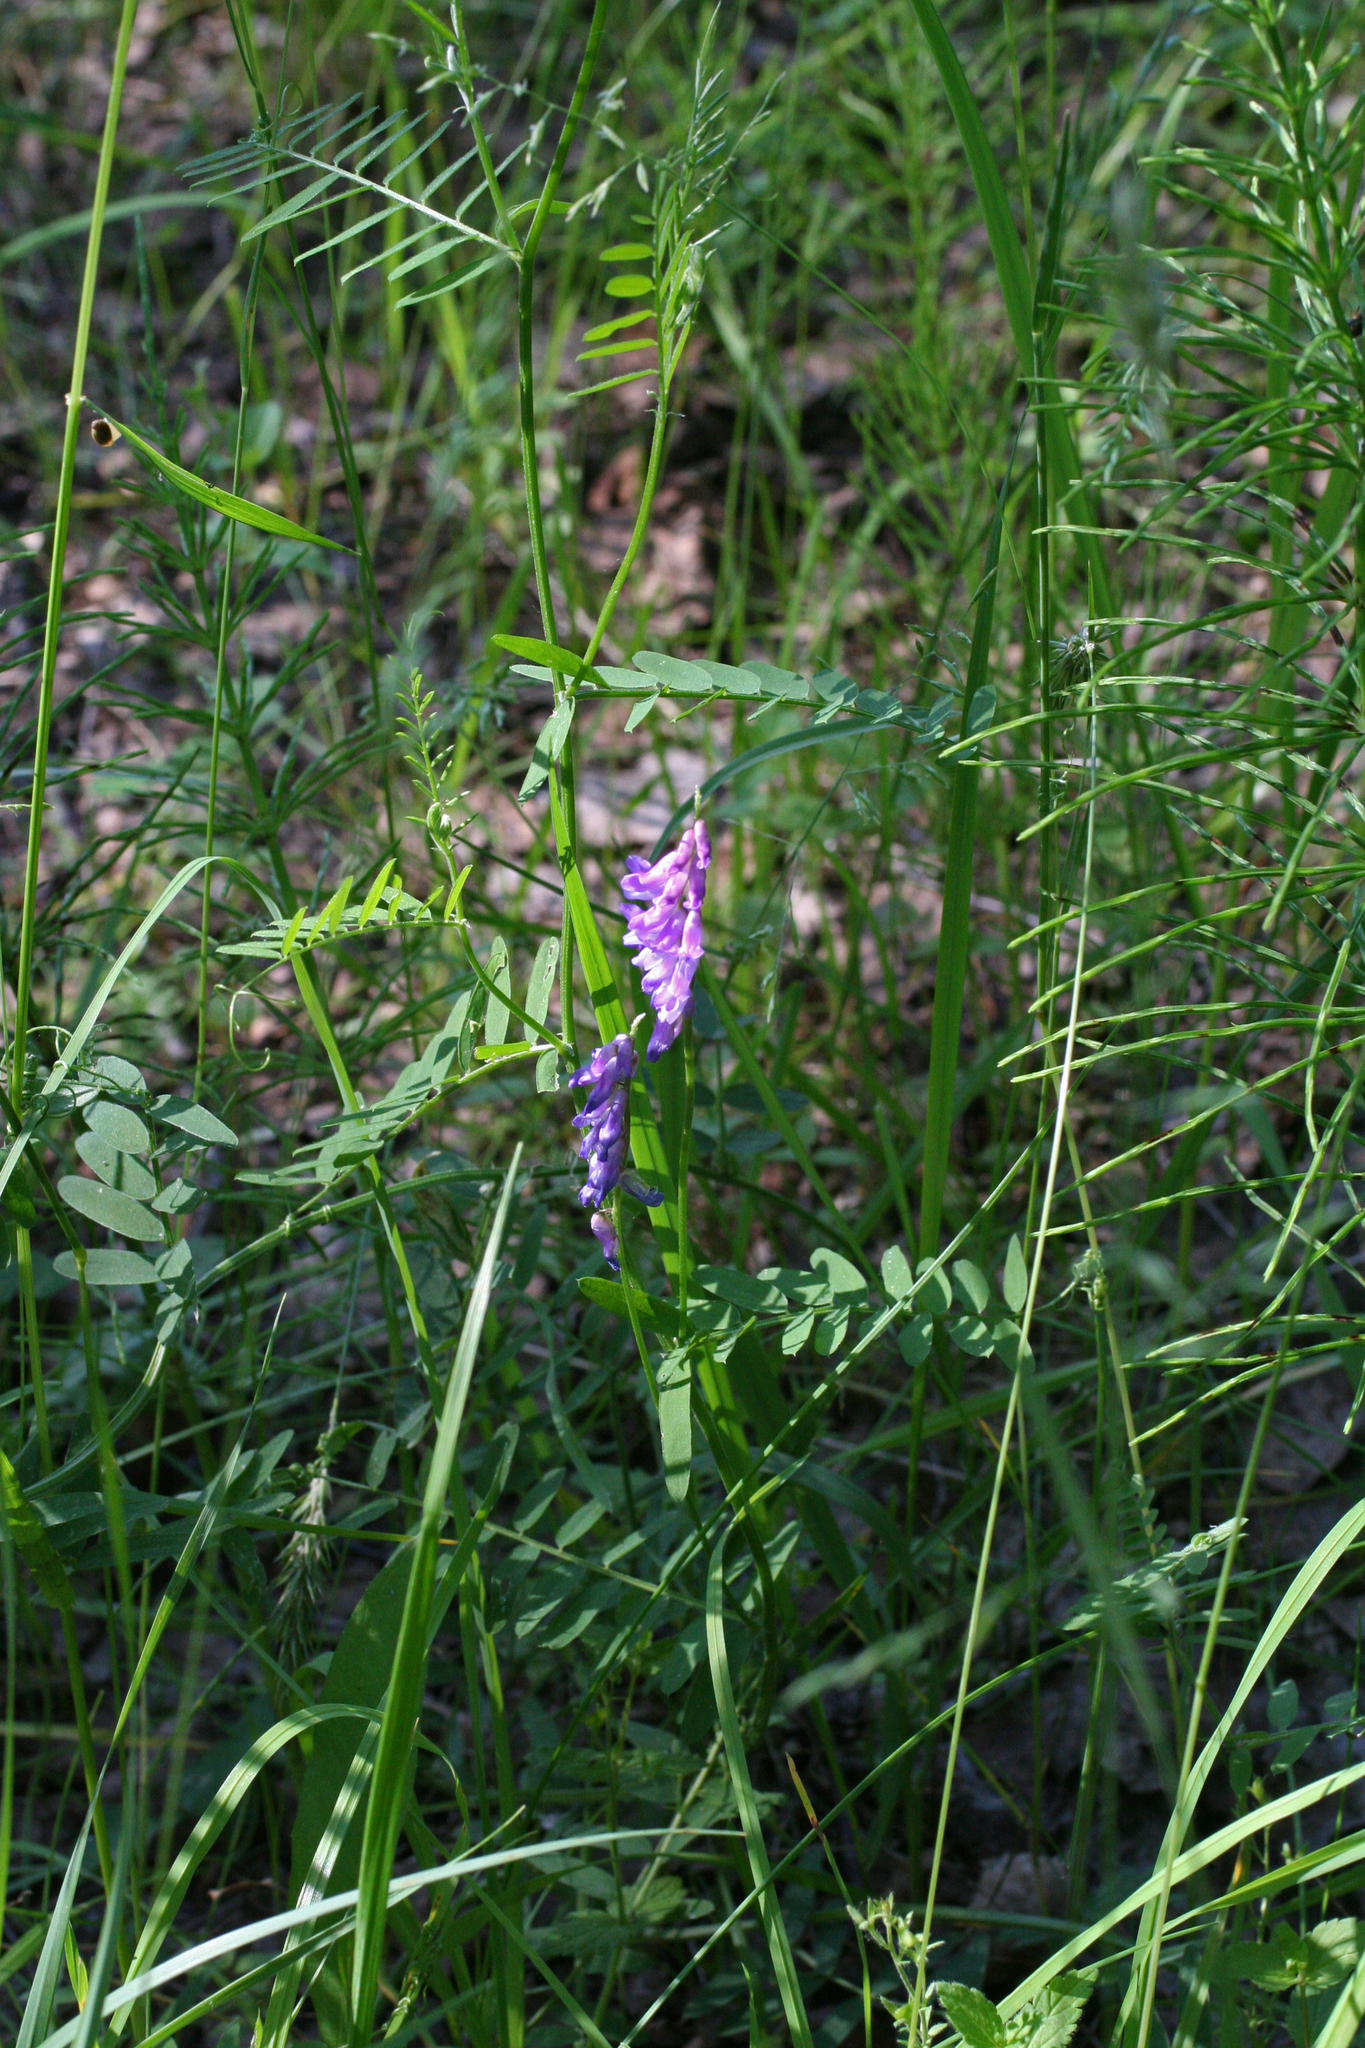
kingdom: Plantae
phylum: Tracheophyta
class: Magnoliopsida
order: Fabales
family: Fabaceae
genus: Vicia
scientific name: Vicia cracca
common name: Bird vetch
